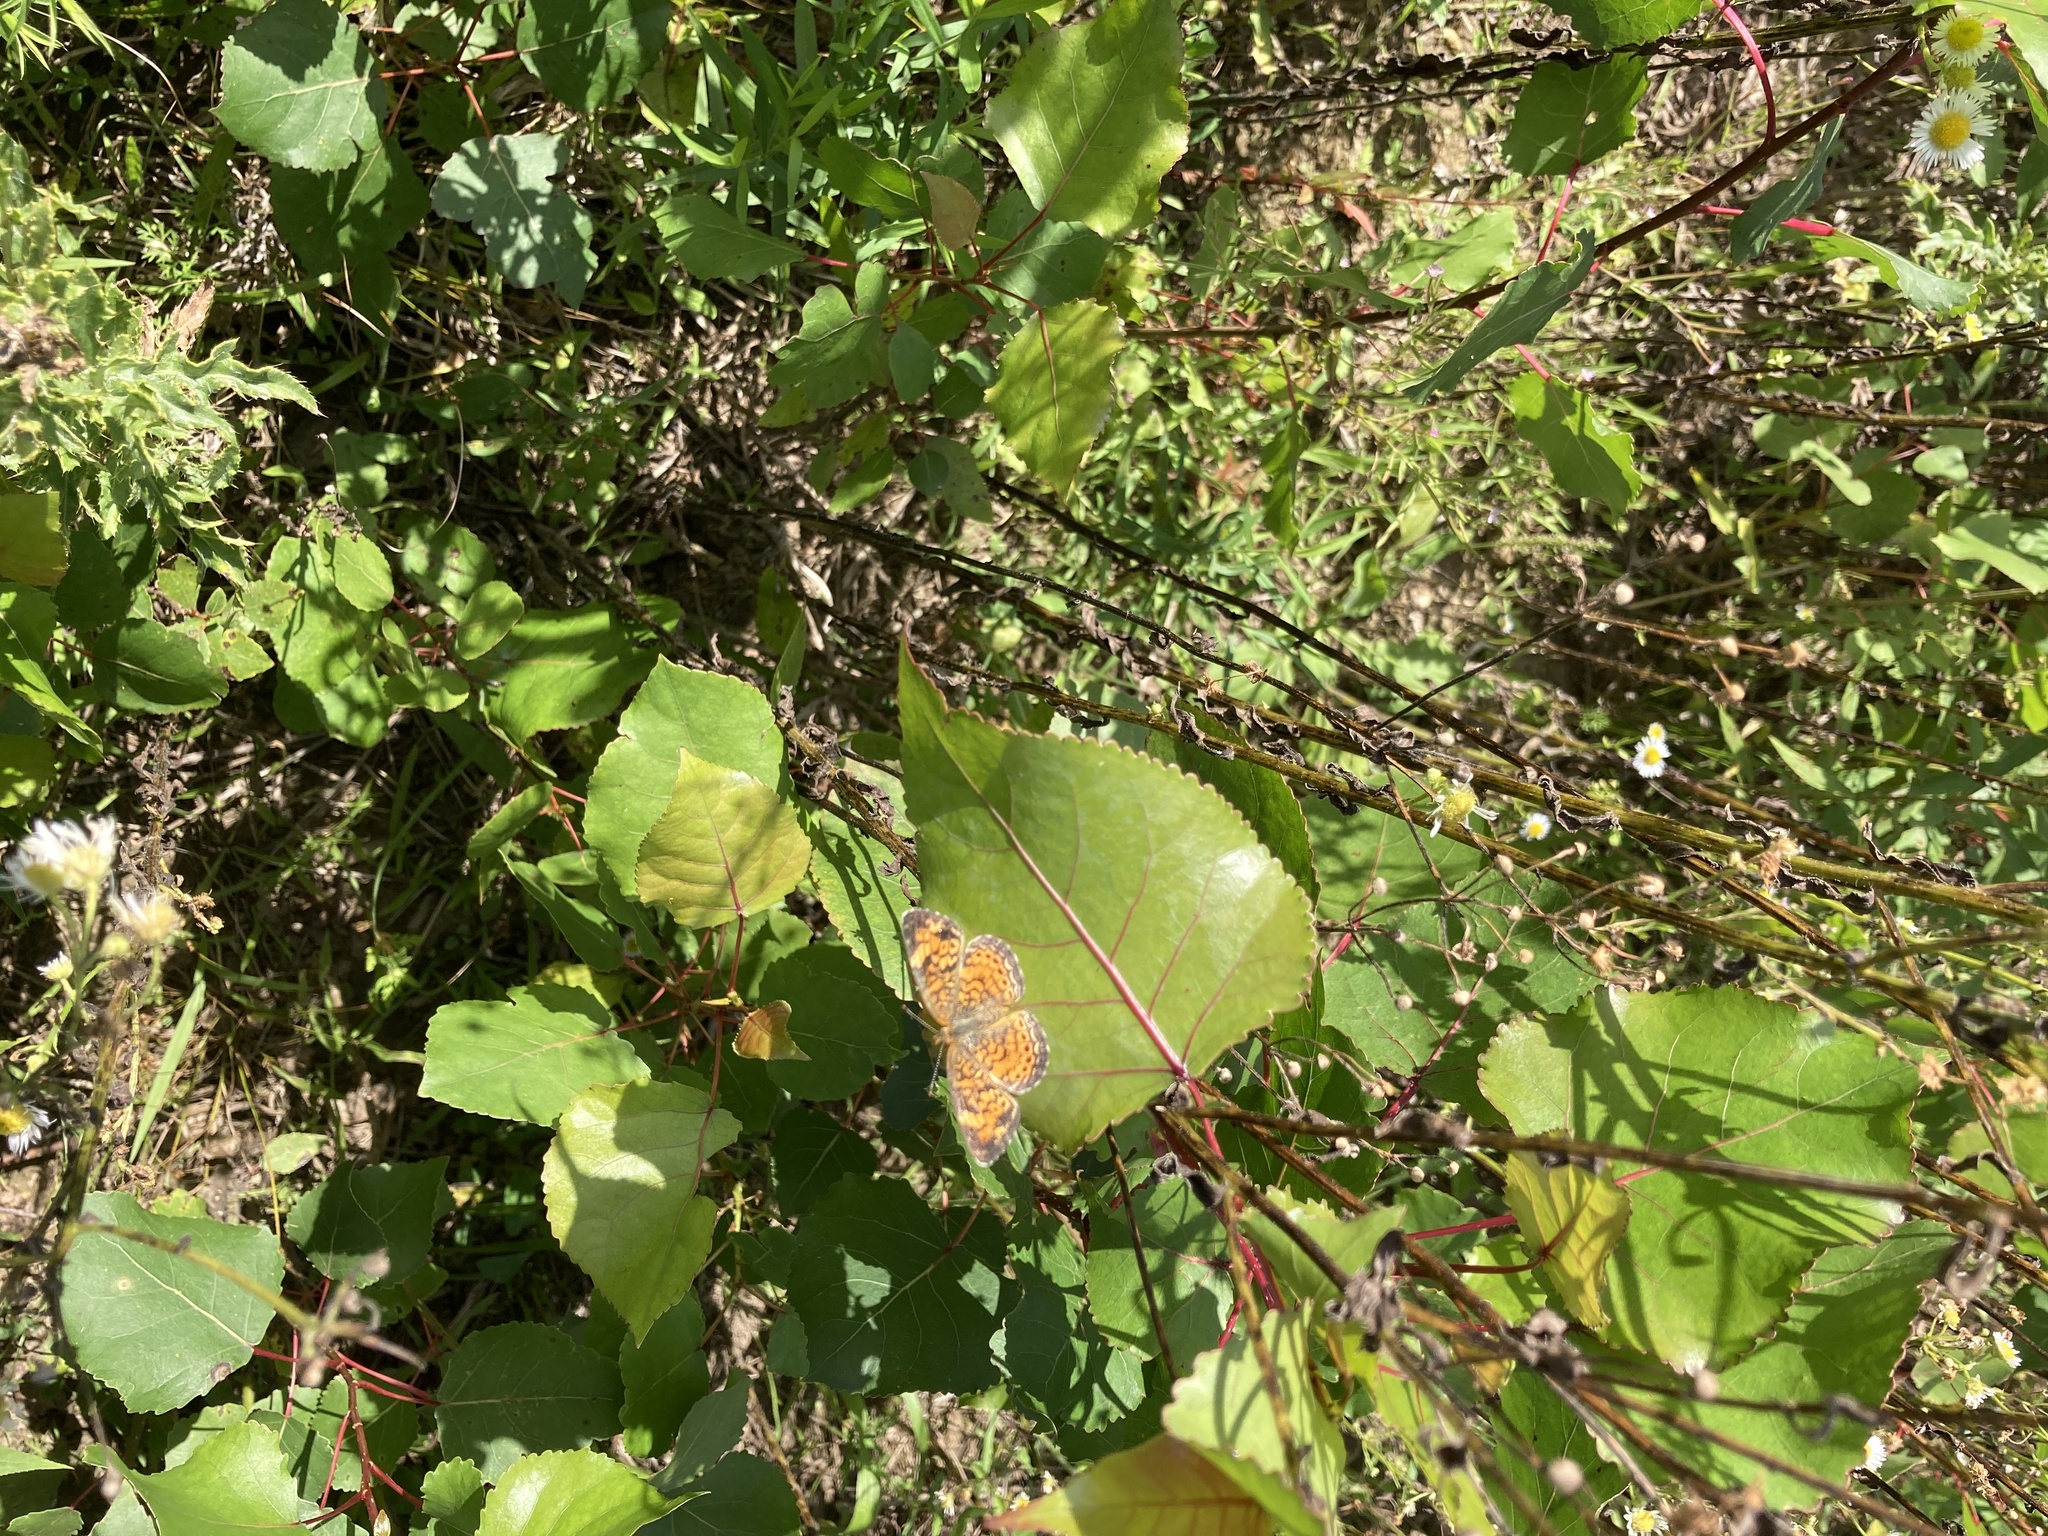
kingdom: Animalia
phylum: Arthropoda
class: Insecta
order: Lepidoptera
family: Nymphalidae
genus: Phyciodes
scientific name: Phyciodes tharos
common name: Pearl crescent
